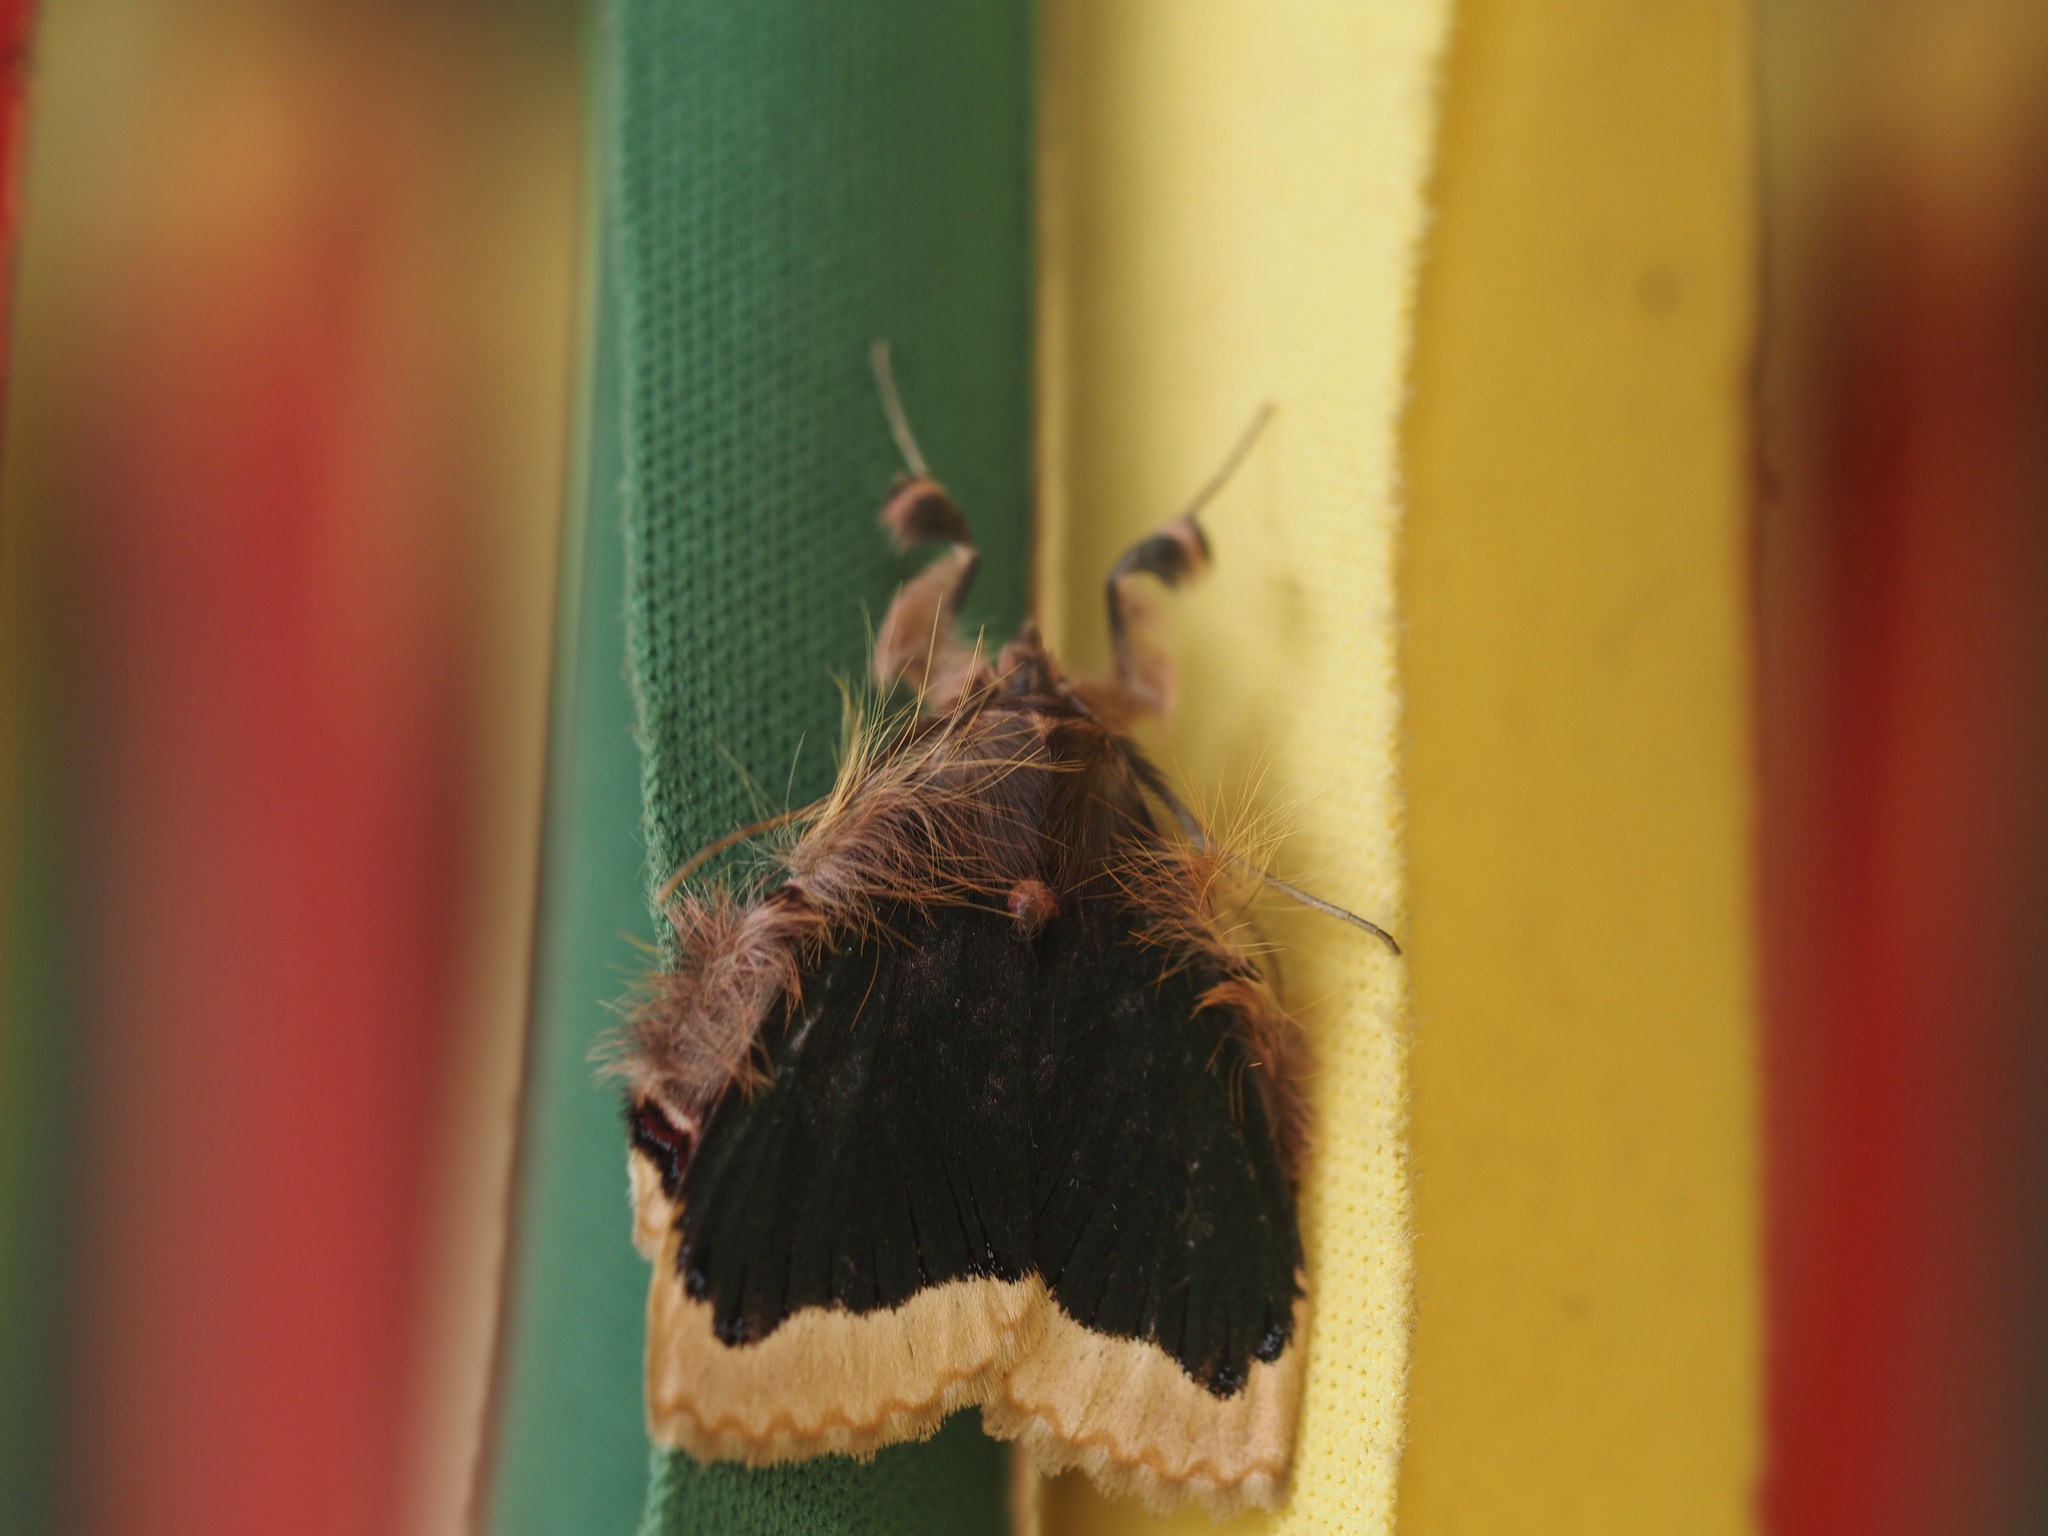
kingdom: Animalia
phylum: Arthropoda
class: Insecta
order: Lepidoptera
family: Erebidae
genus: Ceroctena
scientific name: Ceroctena amynta
